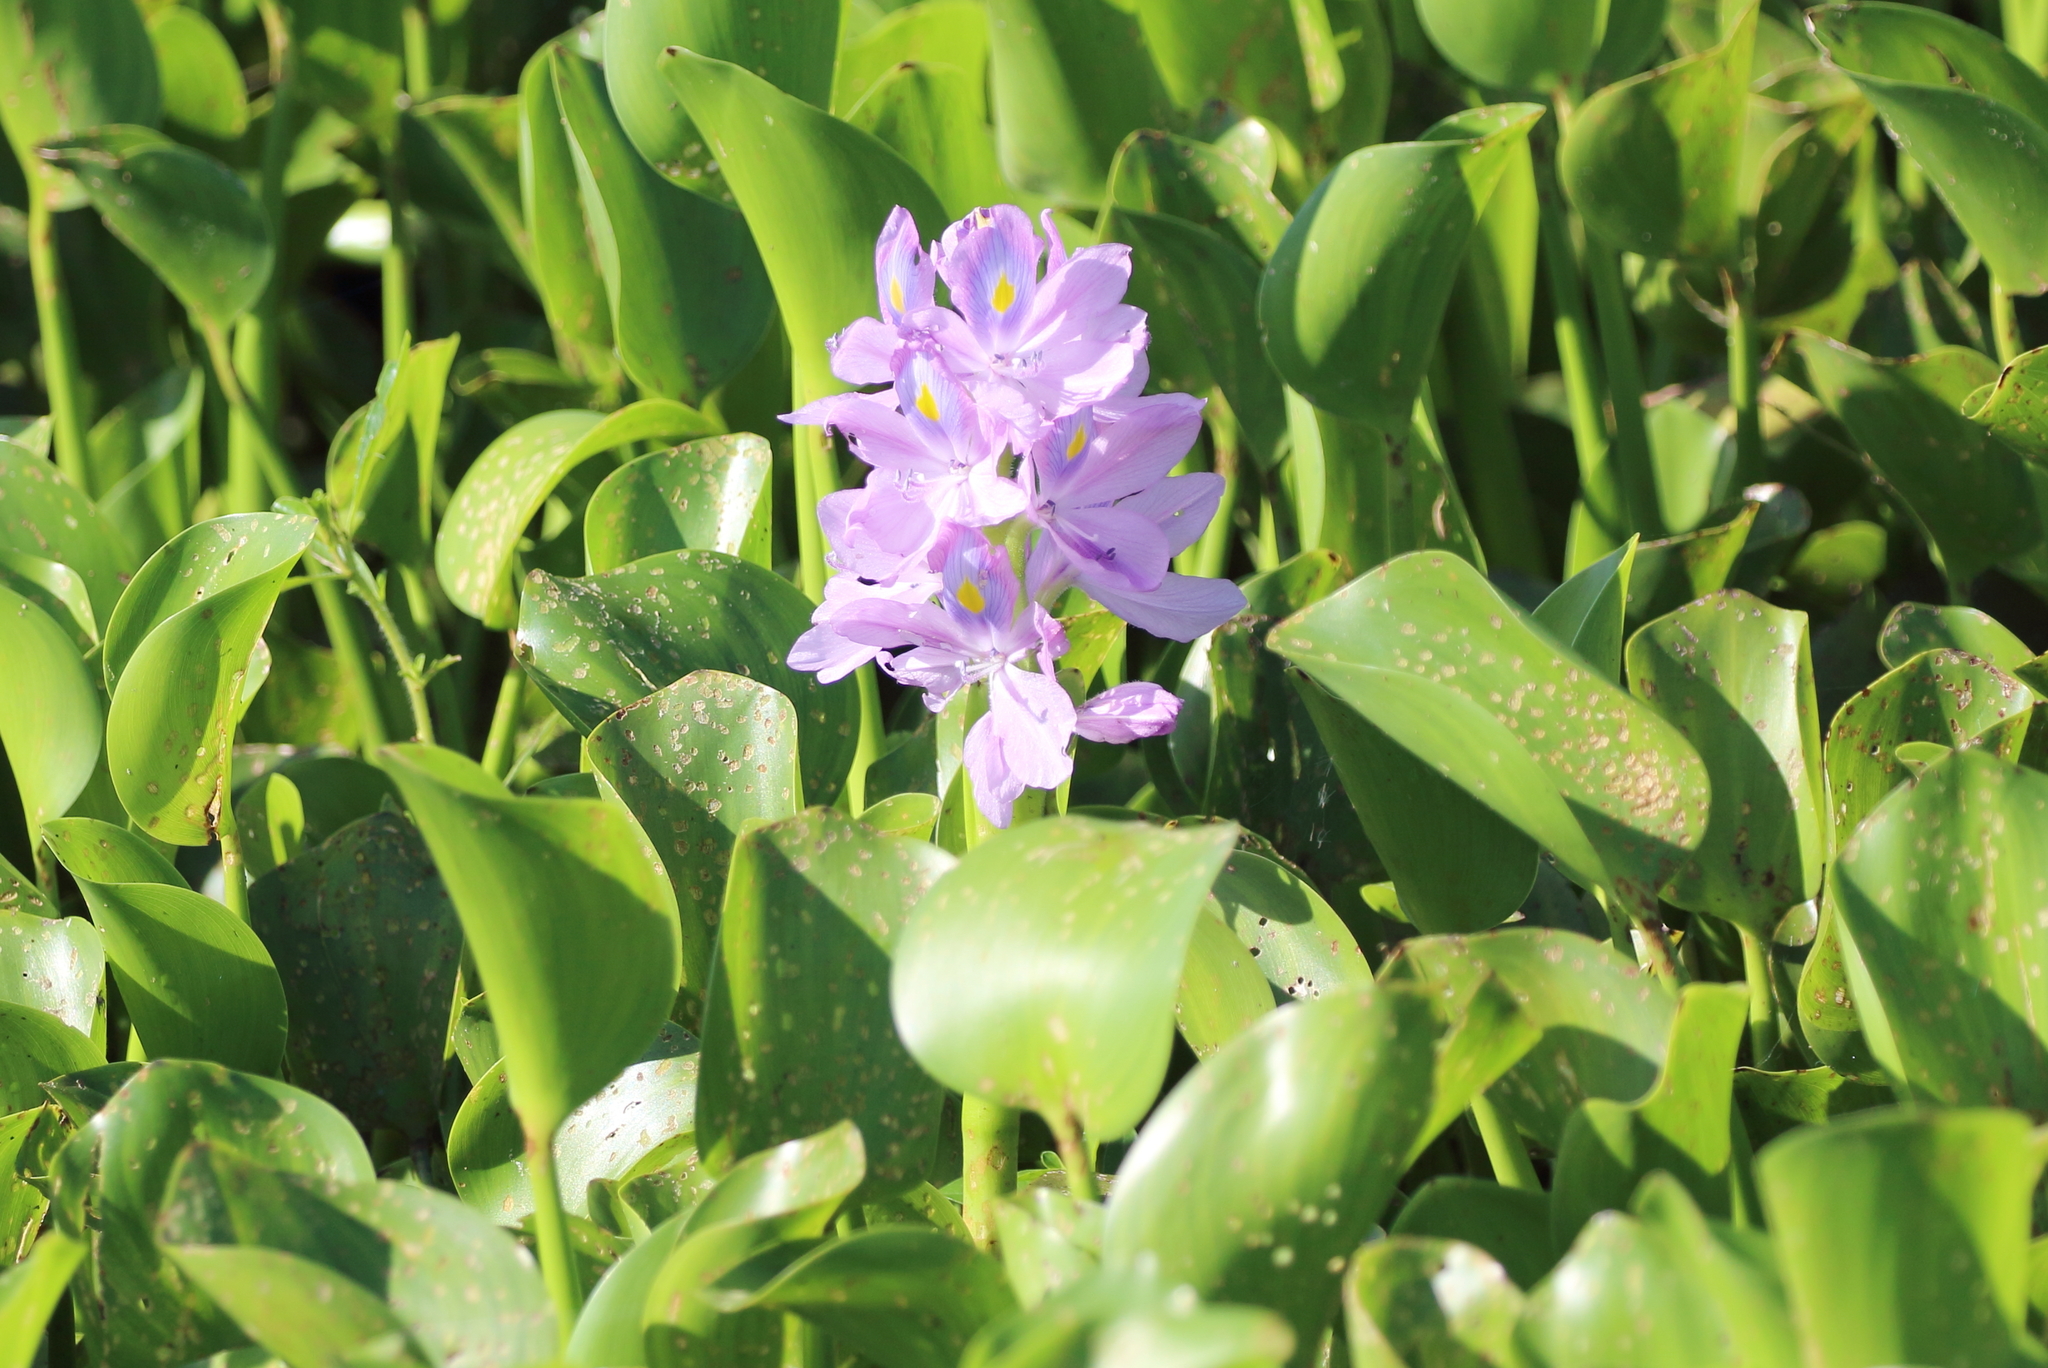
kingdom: Plantae
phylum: Tracheophyta
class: Liliopsida
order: Commelinales
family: Pontederiaceae
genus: Pontederia
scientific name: Pontederia crassipes
